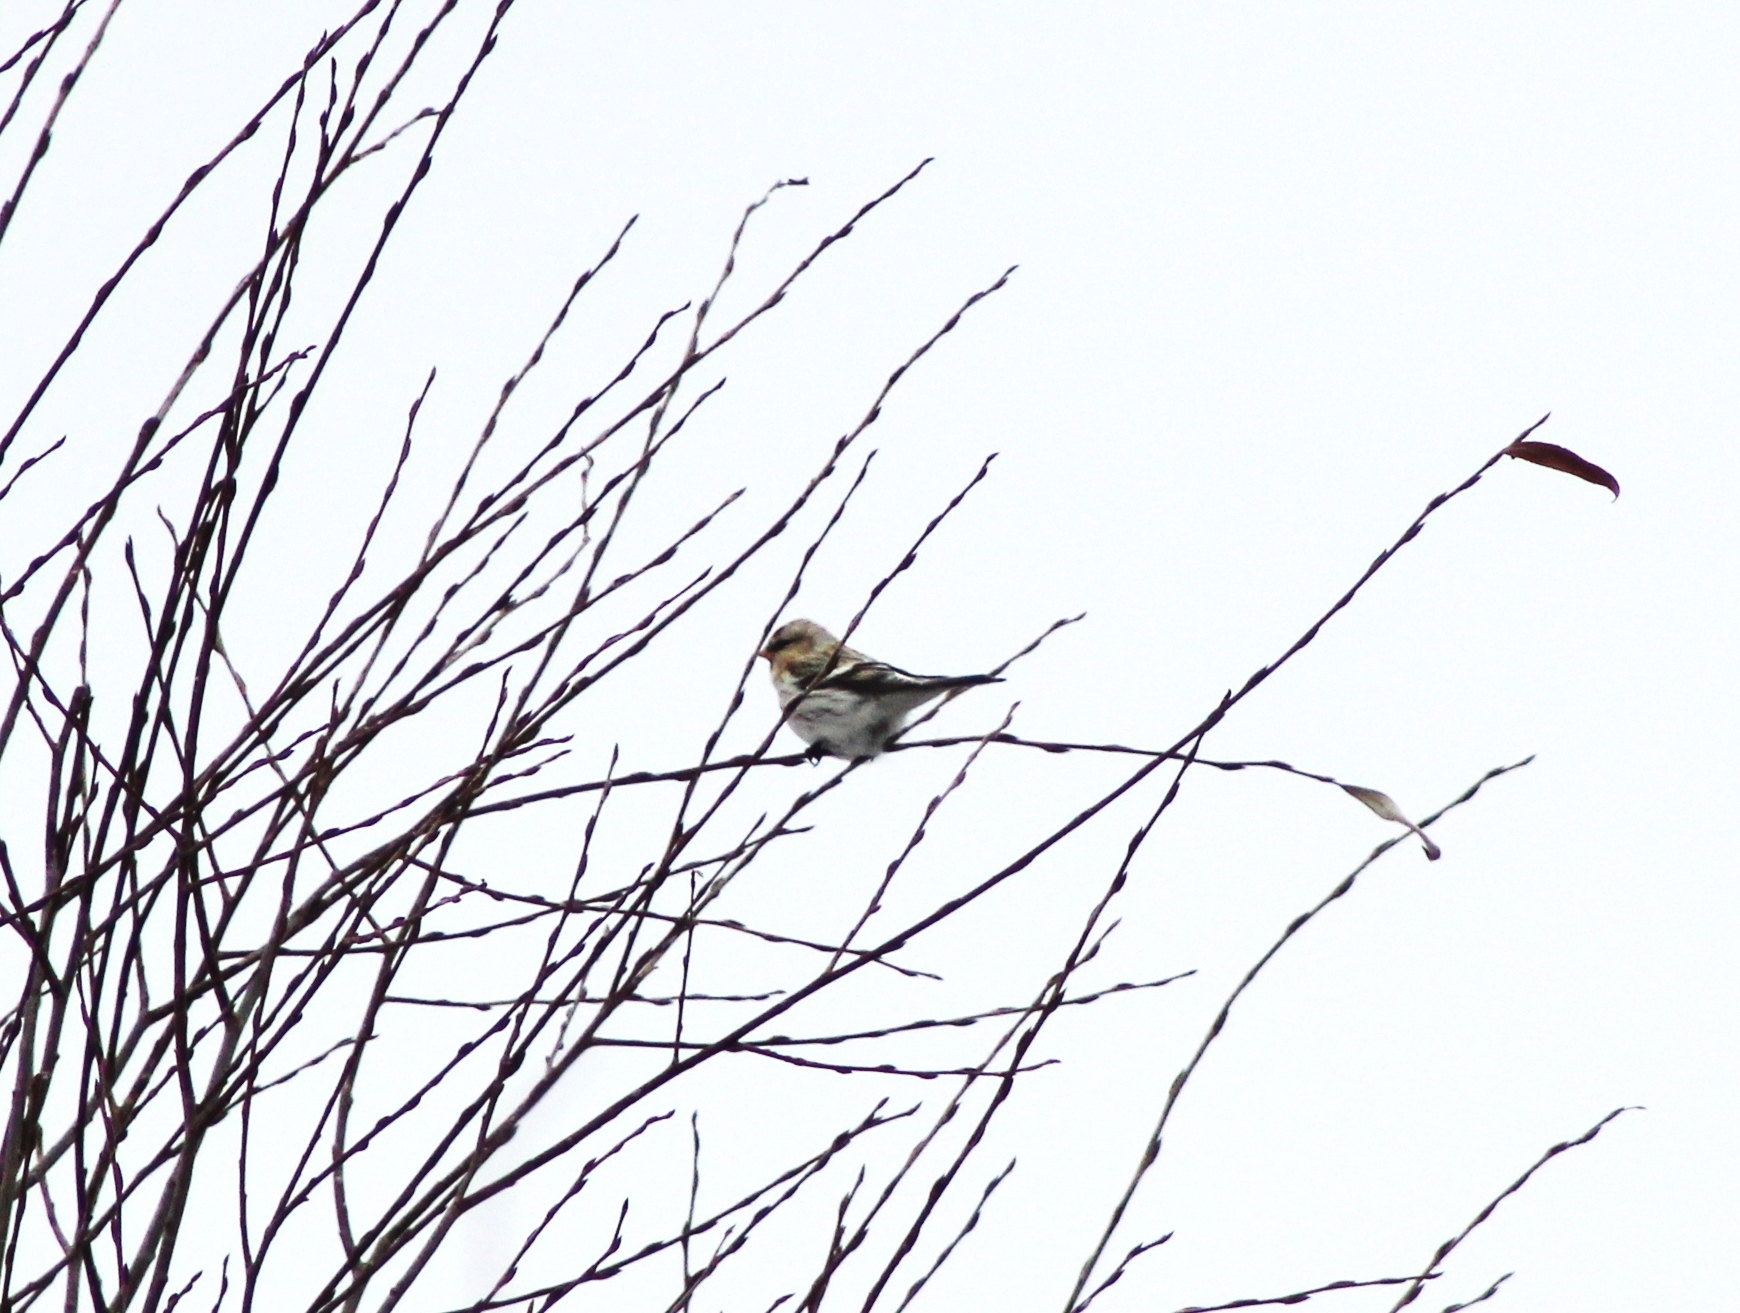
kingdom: Animalia
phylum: Chordata
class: Aves
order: Passeriformes
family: Fringillidae
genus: Acanthis
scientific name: Acanthis flammea
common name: Common redpoll
